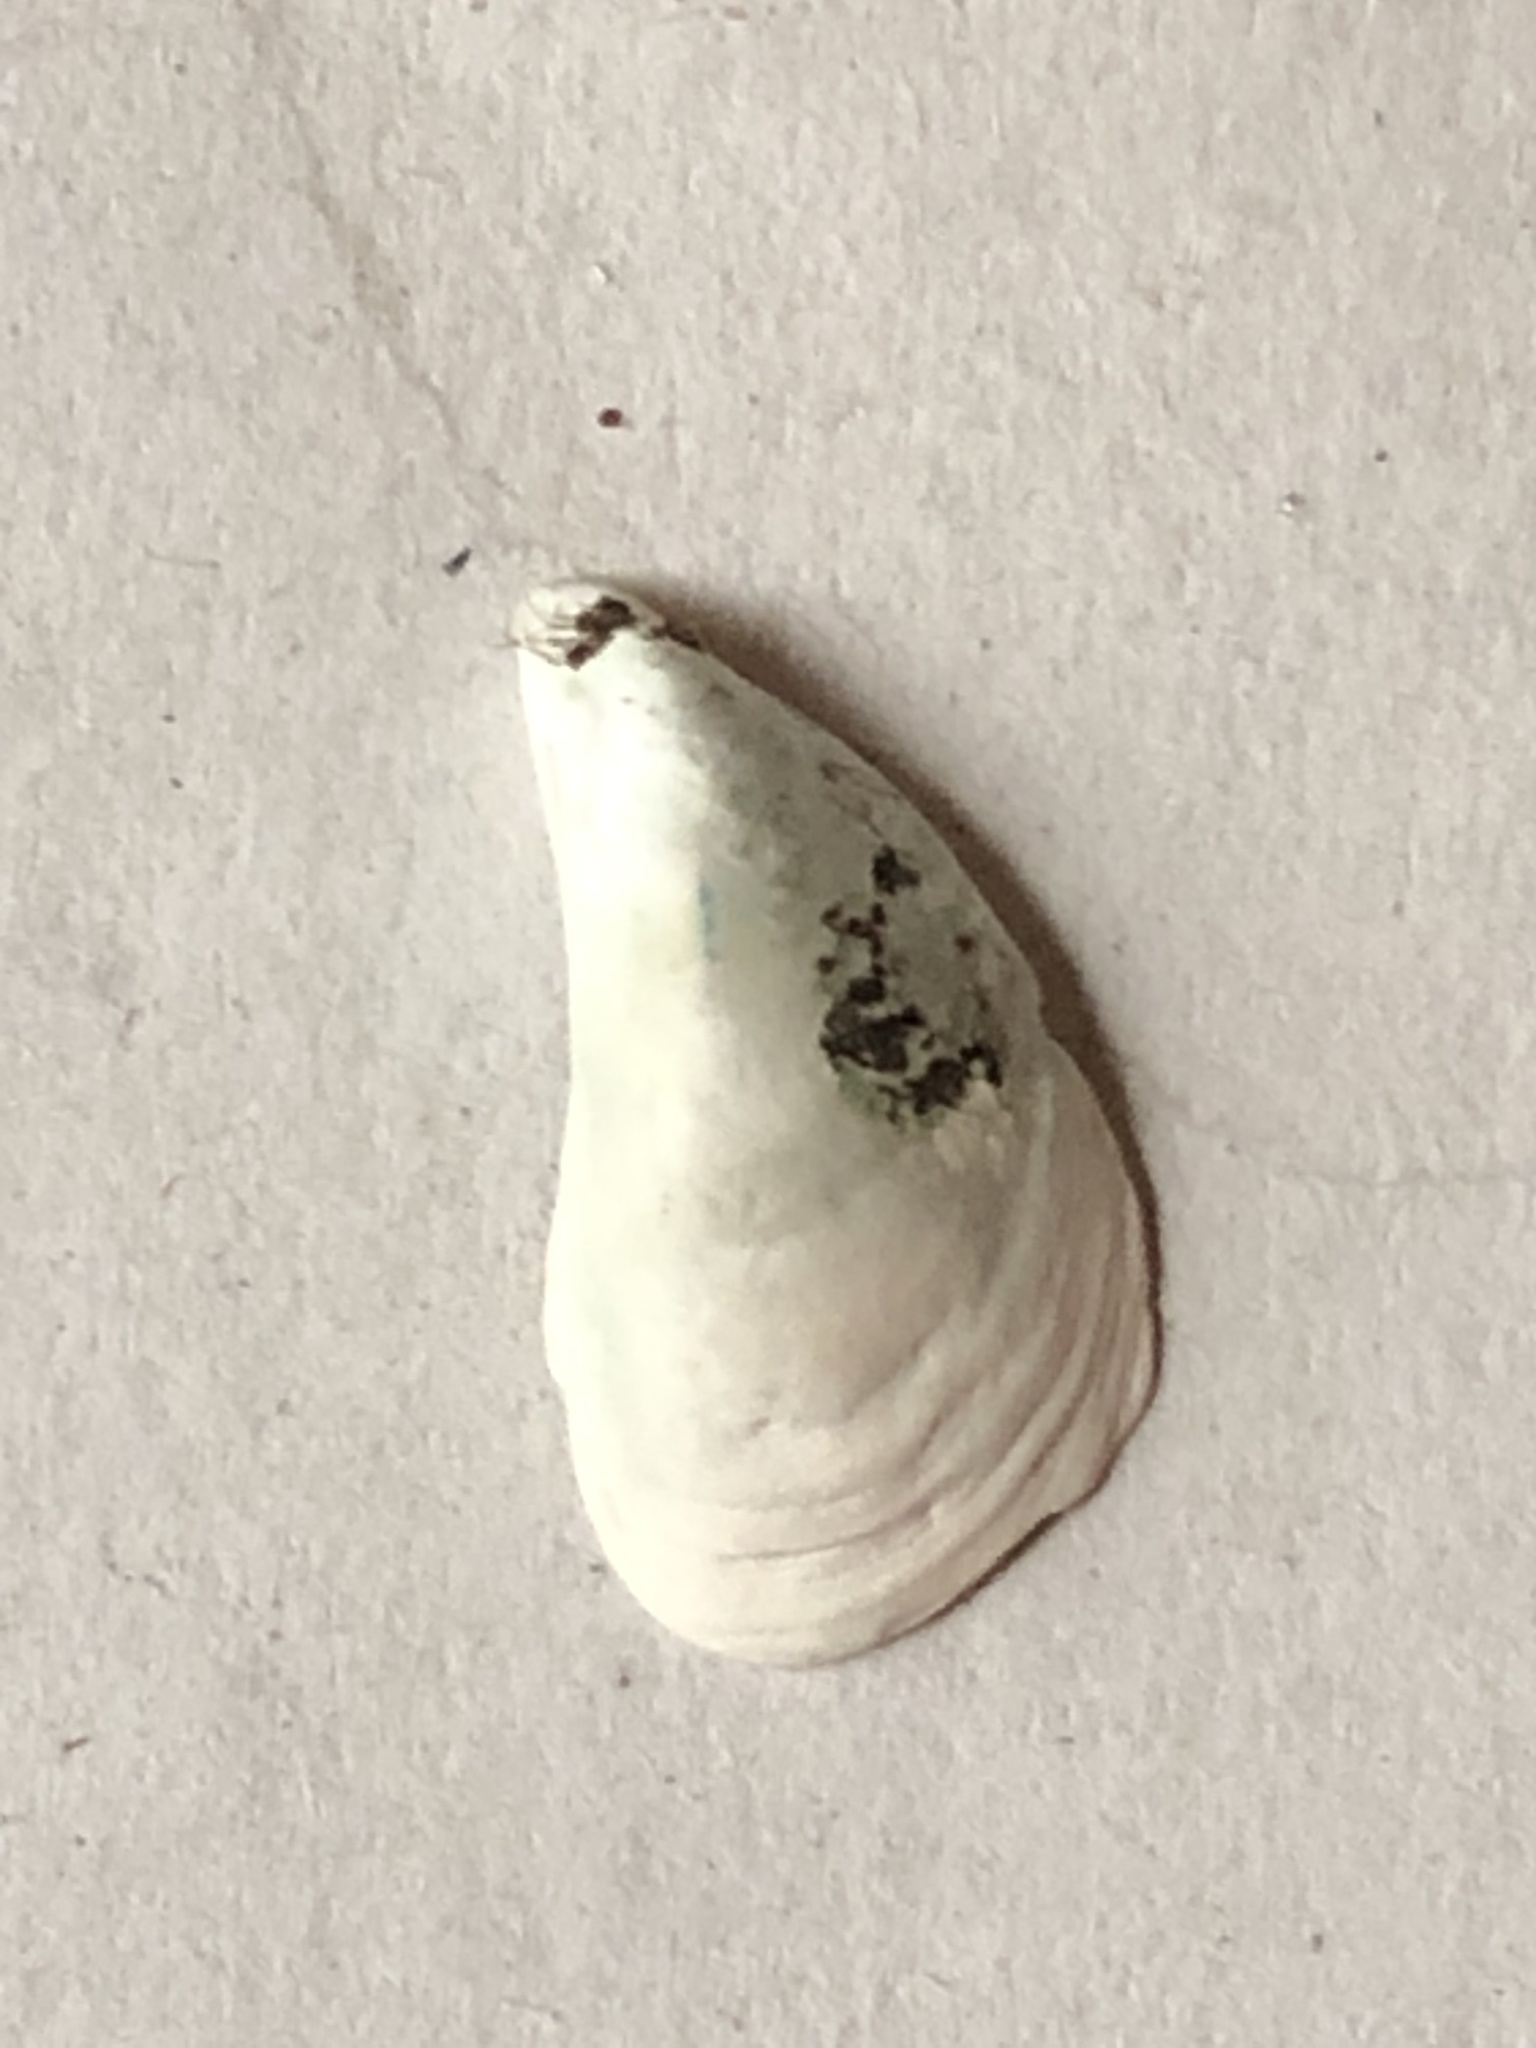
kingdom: Animalia
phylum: Mollusca
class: Bivalvia
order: Myida
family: Dreissenidae
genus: Dreissena
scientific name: Dreissena bugensis
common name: Quagga mussel
